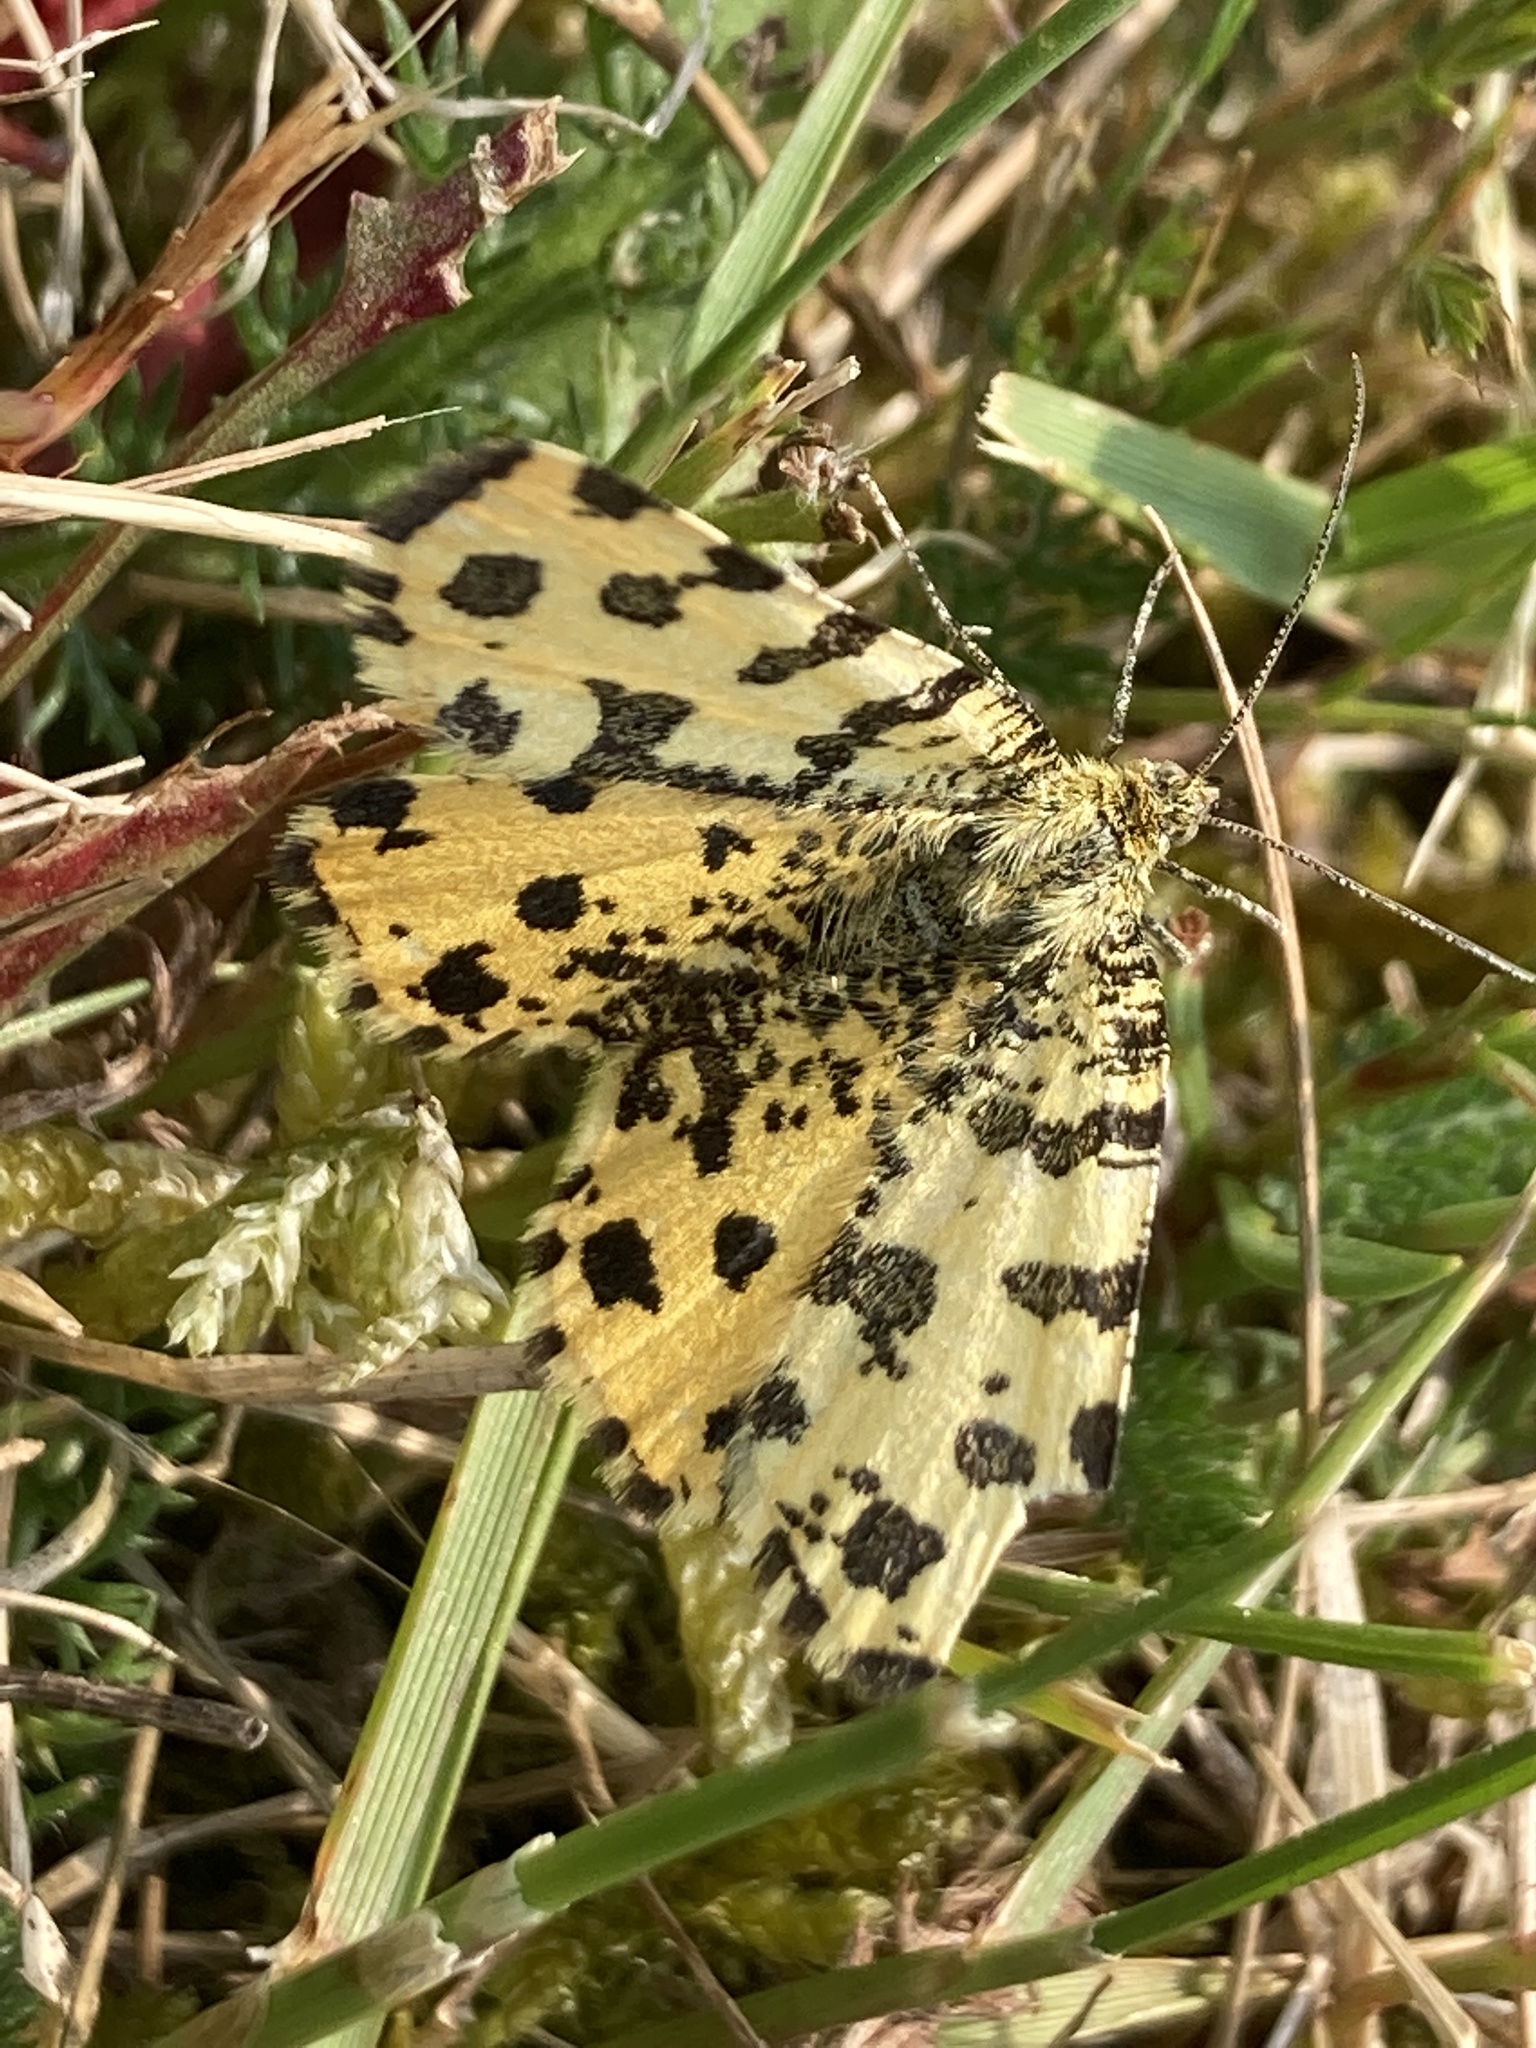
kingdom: Animalia
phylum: Arthropoda
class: Insecta
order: Lepidoptera
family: Geometridae
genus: Pseudopanthera
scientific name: Pseudopanthera macularia
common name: Speckled yellow
